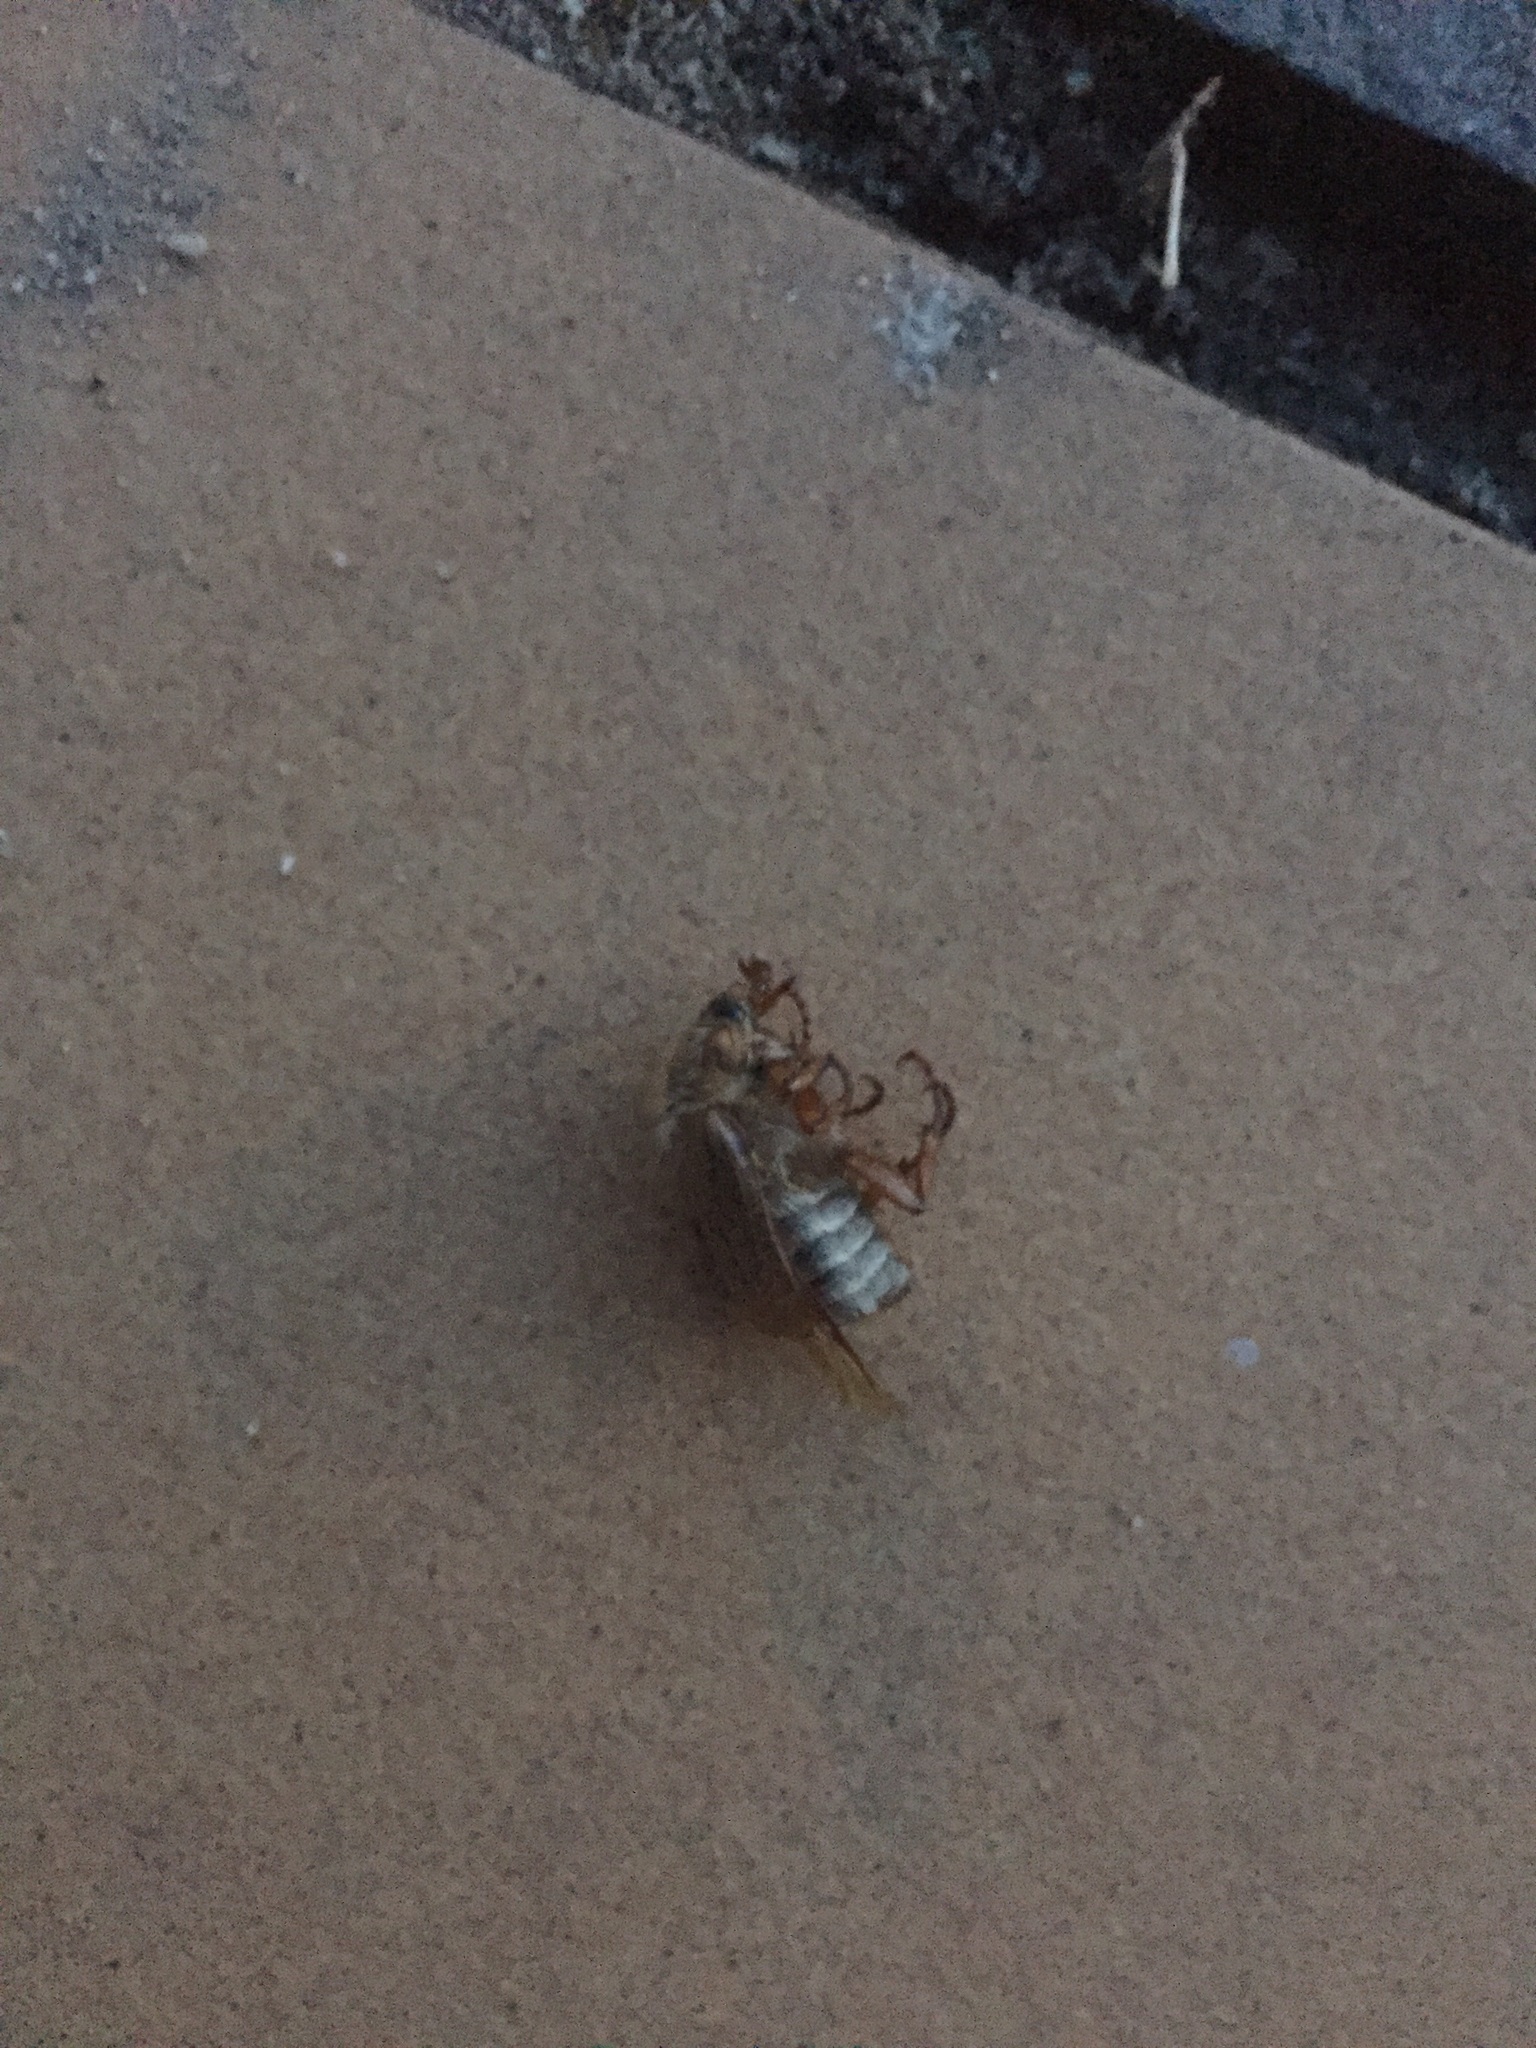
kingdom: Animalia
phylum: Arthropoda
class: Insecta
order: Coleoptera
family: Scarabaeidae
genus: Melolontha
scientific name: Melolontha melolontha
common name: Cockchafer maybeetle
